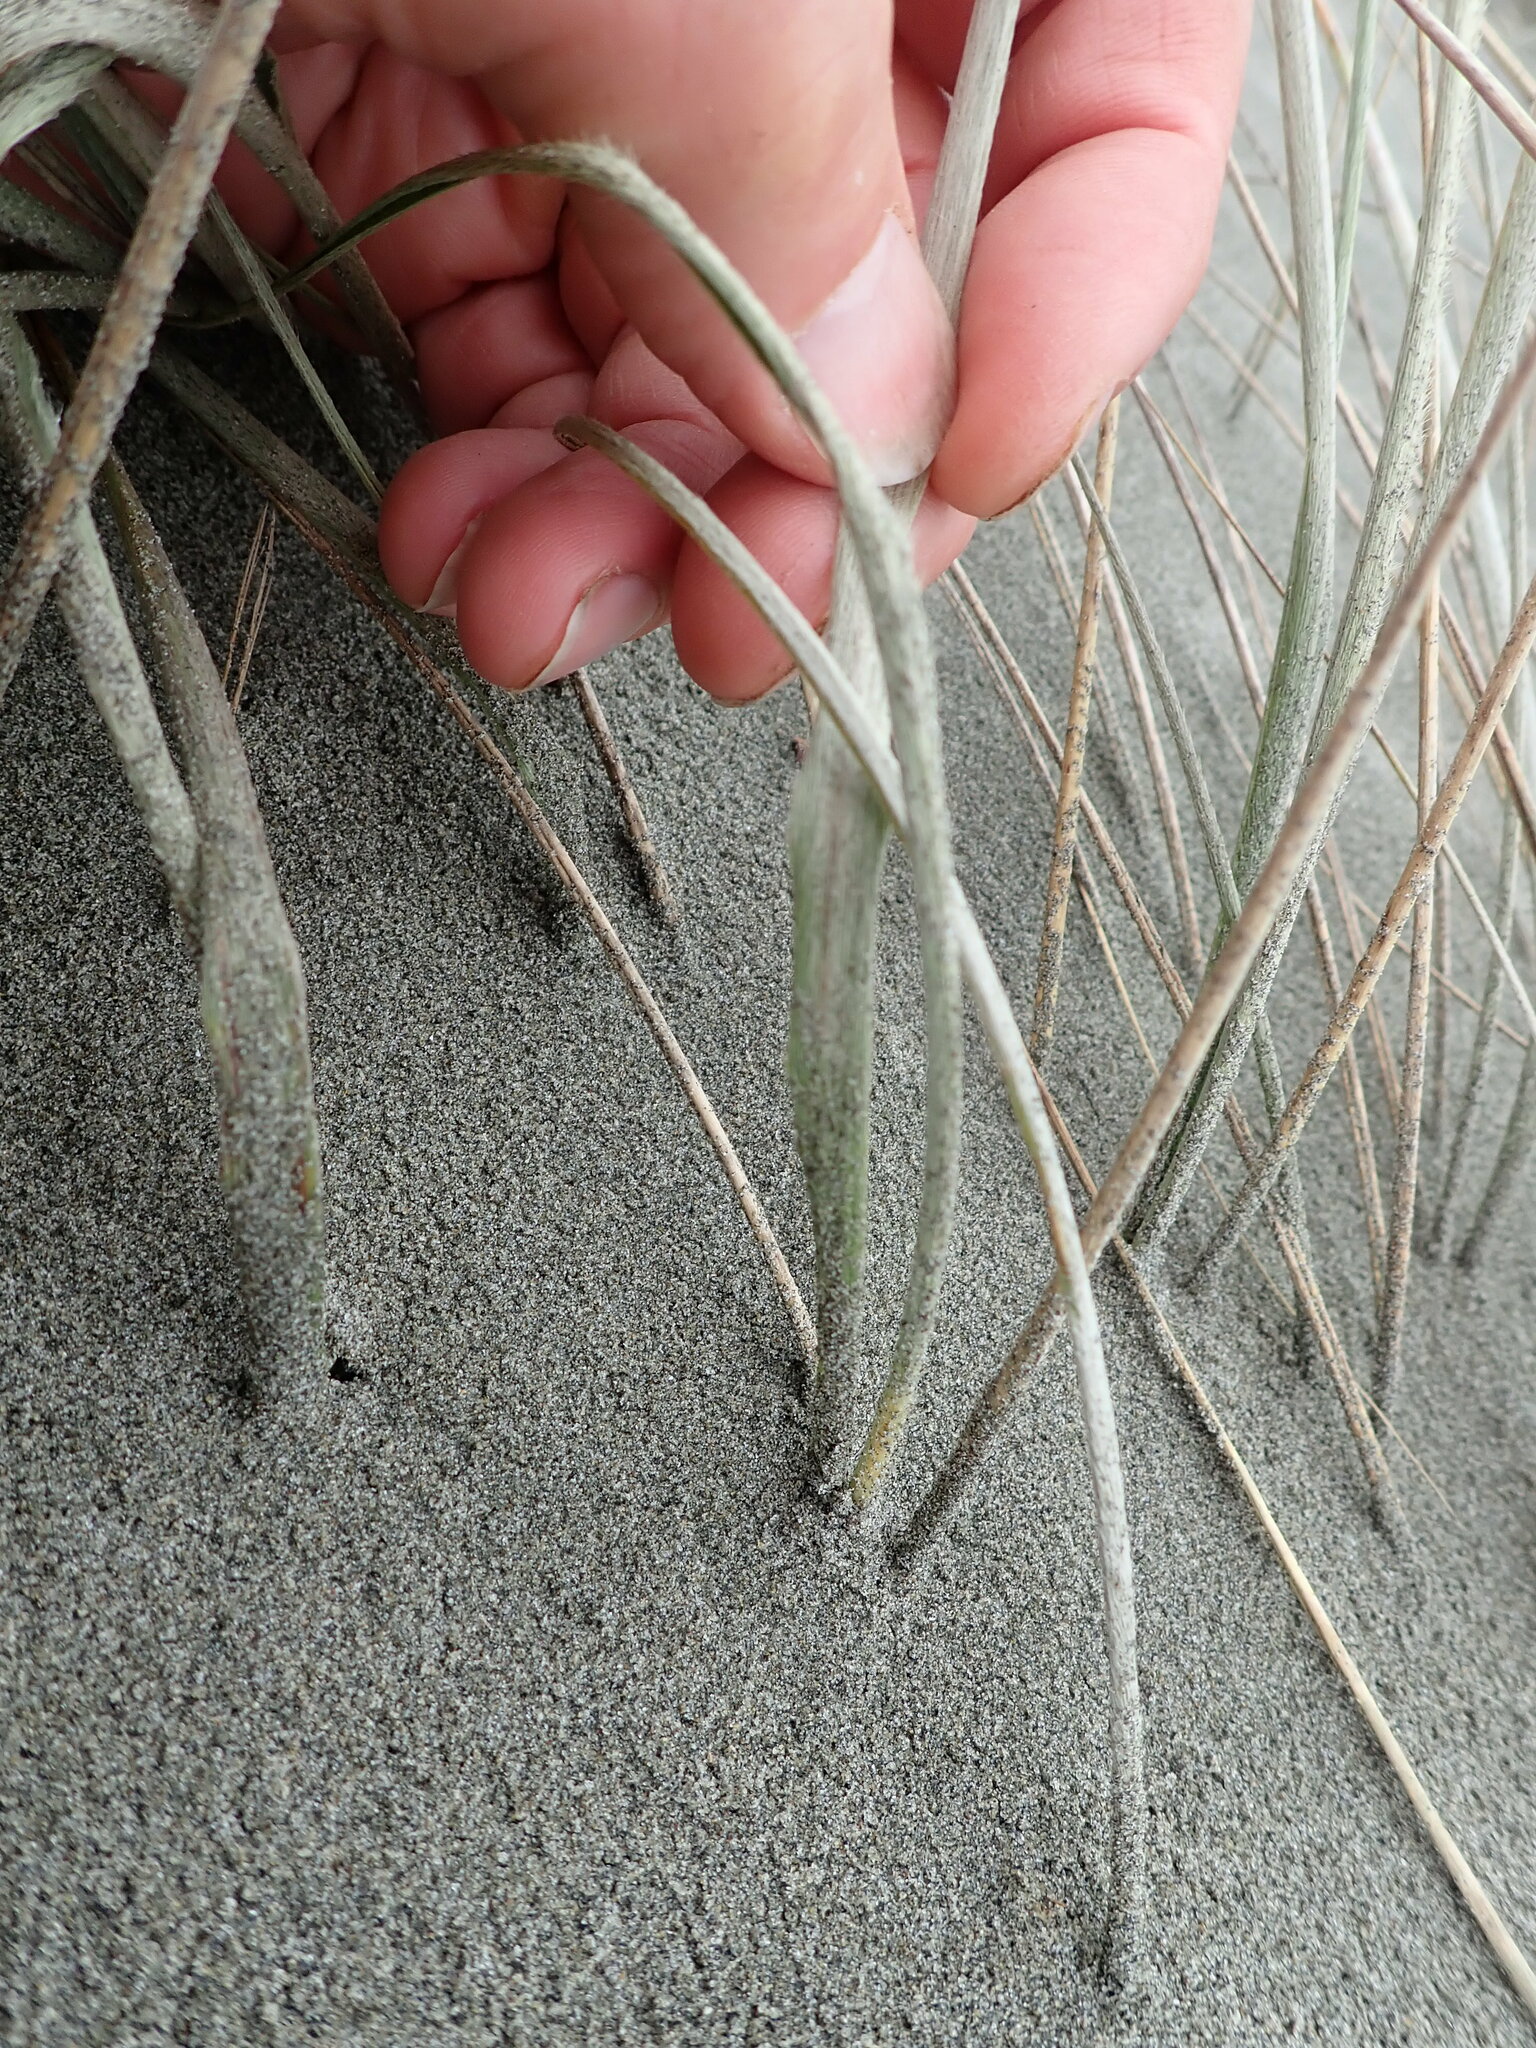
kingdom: Plantae
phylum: Tracheophyta
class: Liliopsida
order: Poales
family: Poaceae
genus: Spinifex
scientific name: Spinifex sericeus
